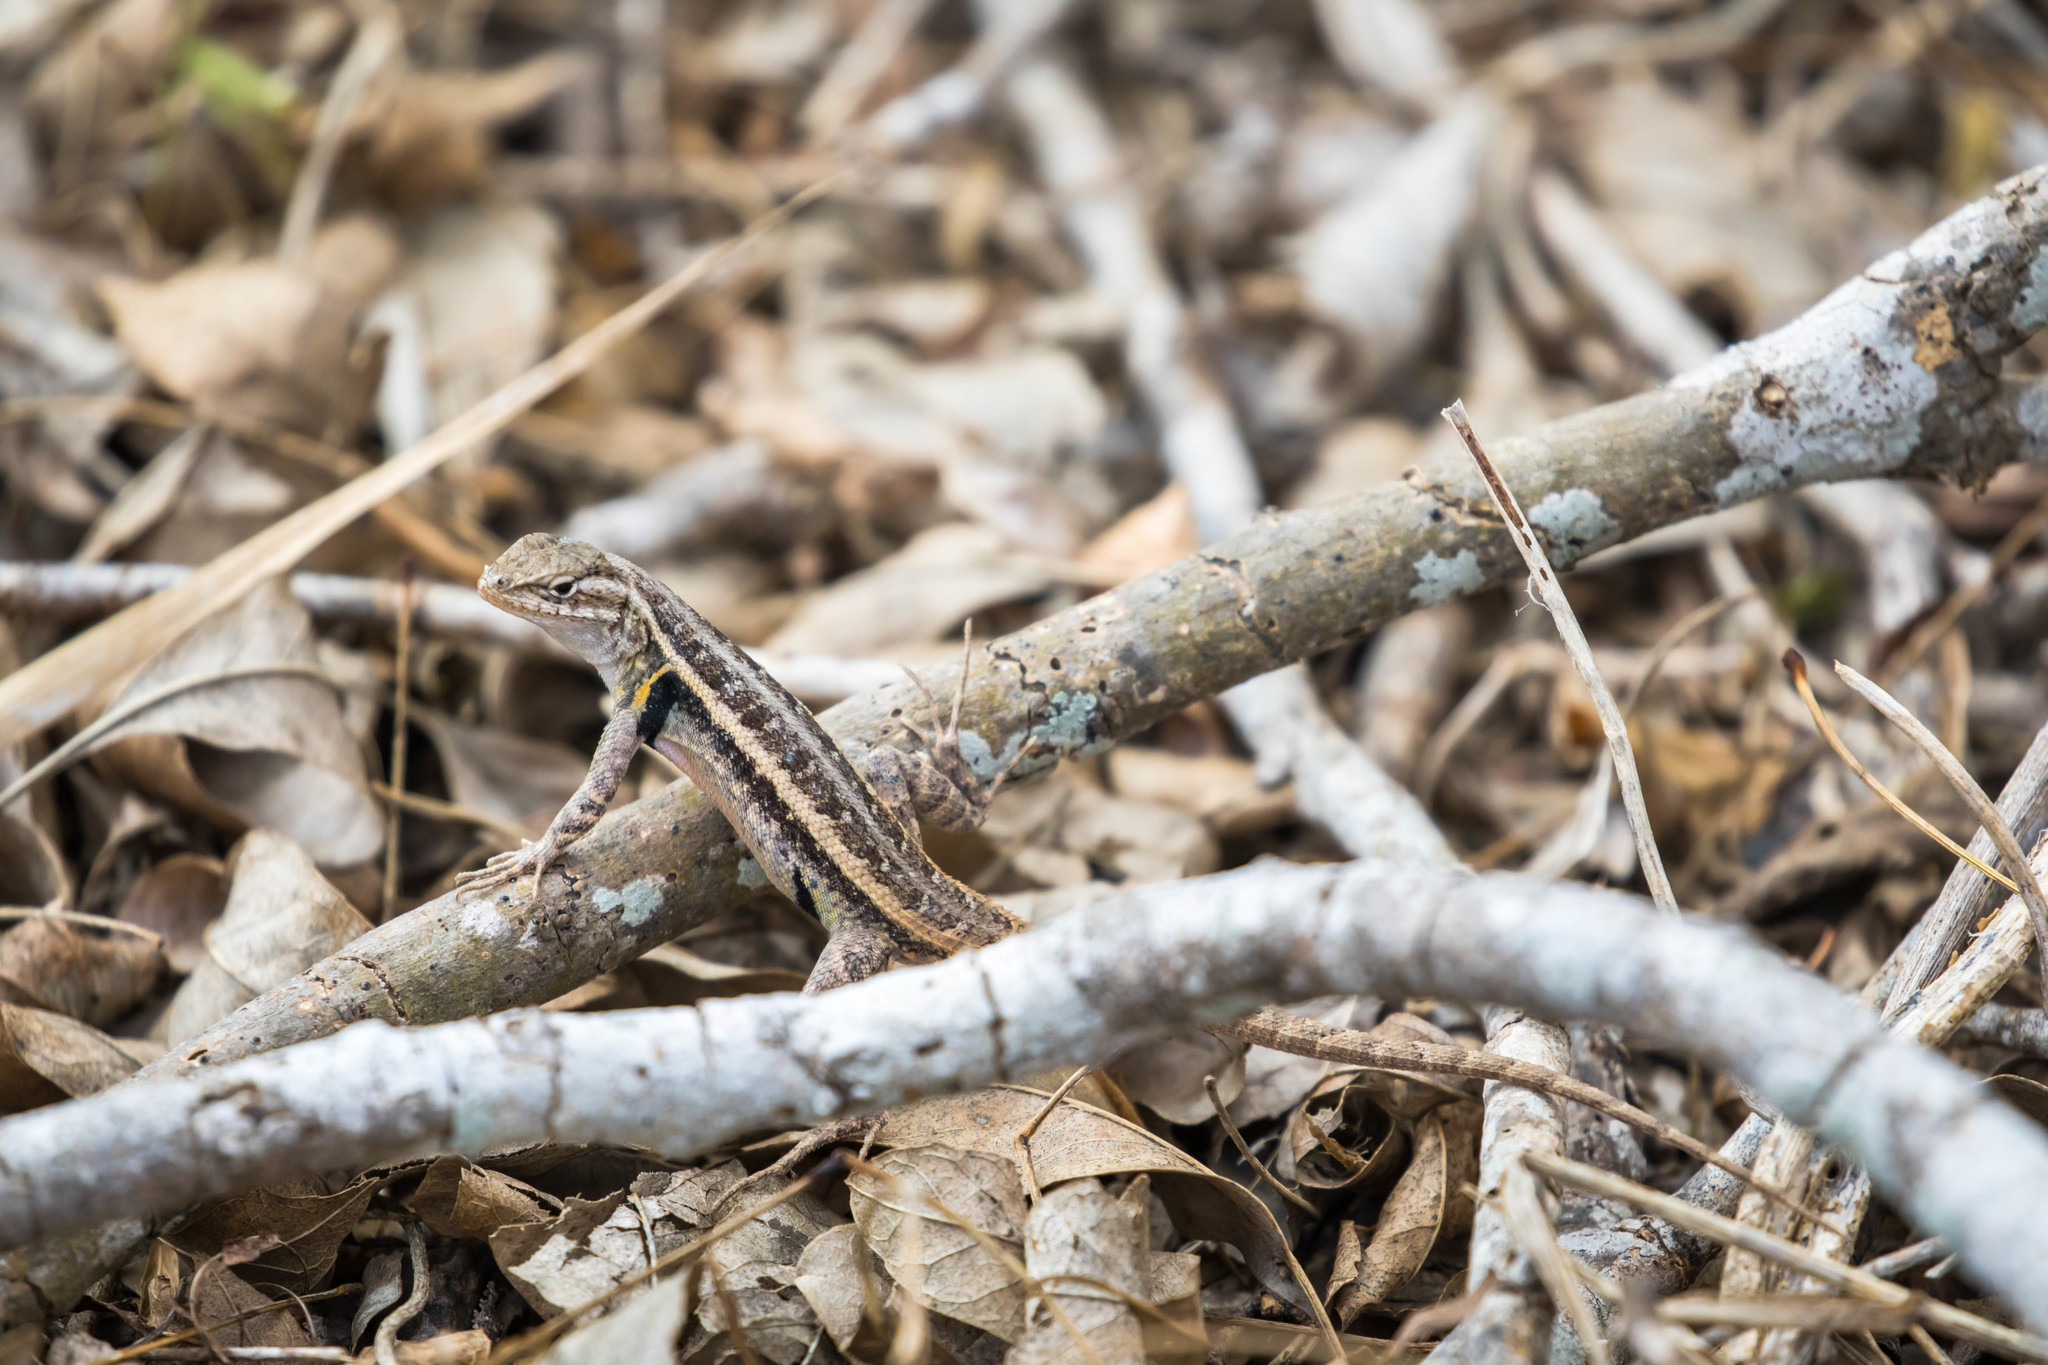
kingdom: Animalia
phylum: Chordata
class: Squamata
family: Phrynosomatidae
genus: Sceloporus
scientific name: Sceloporus variabilis
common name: Rosebelly lizard
